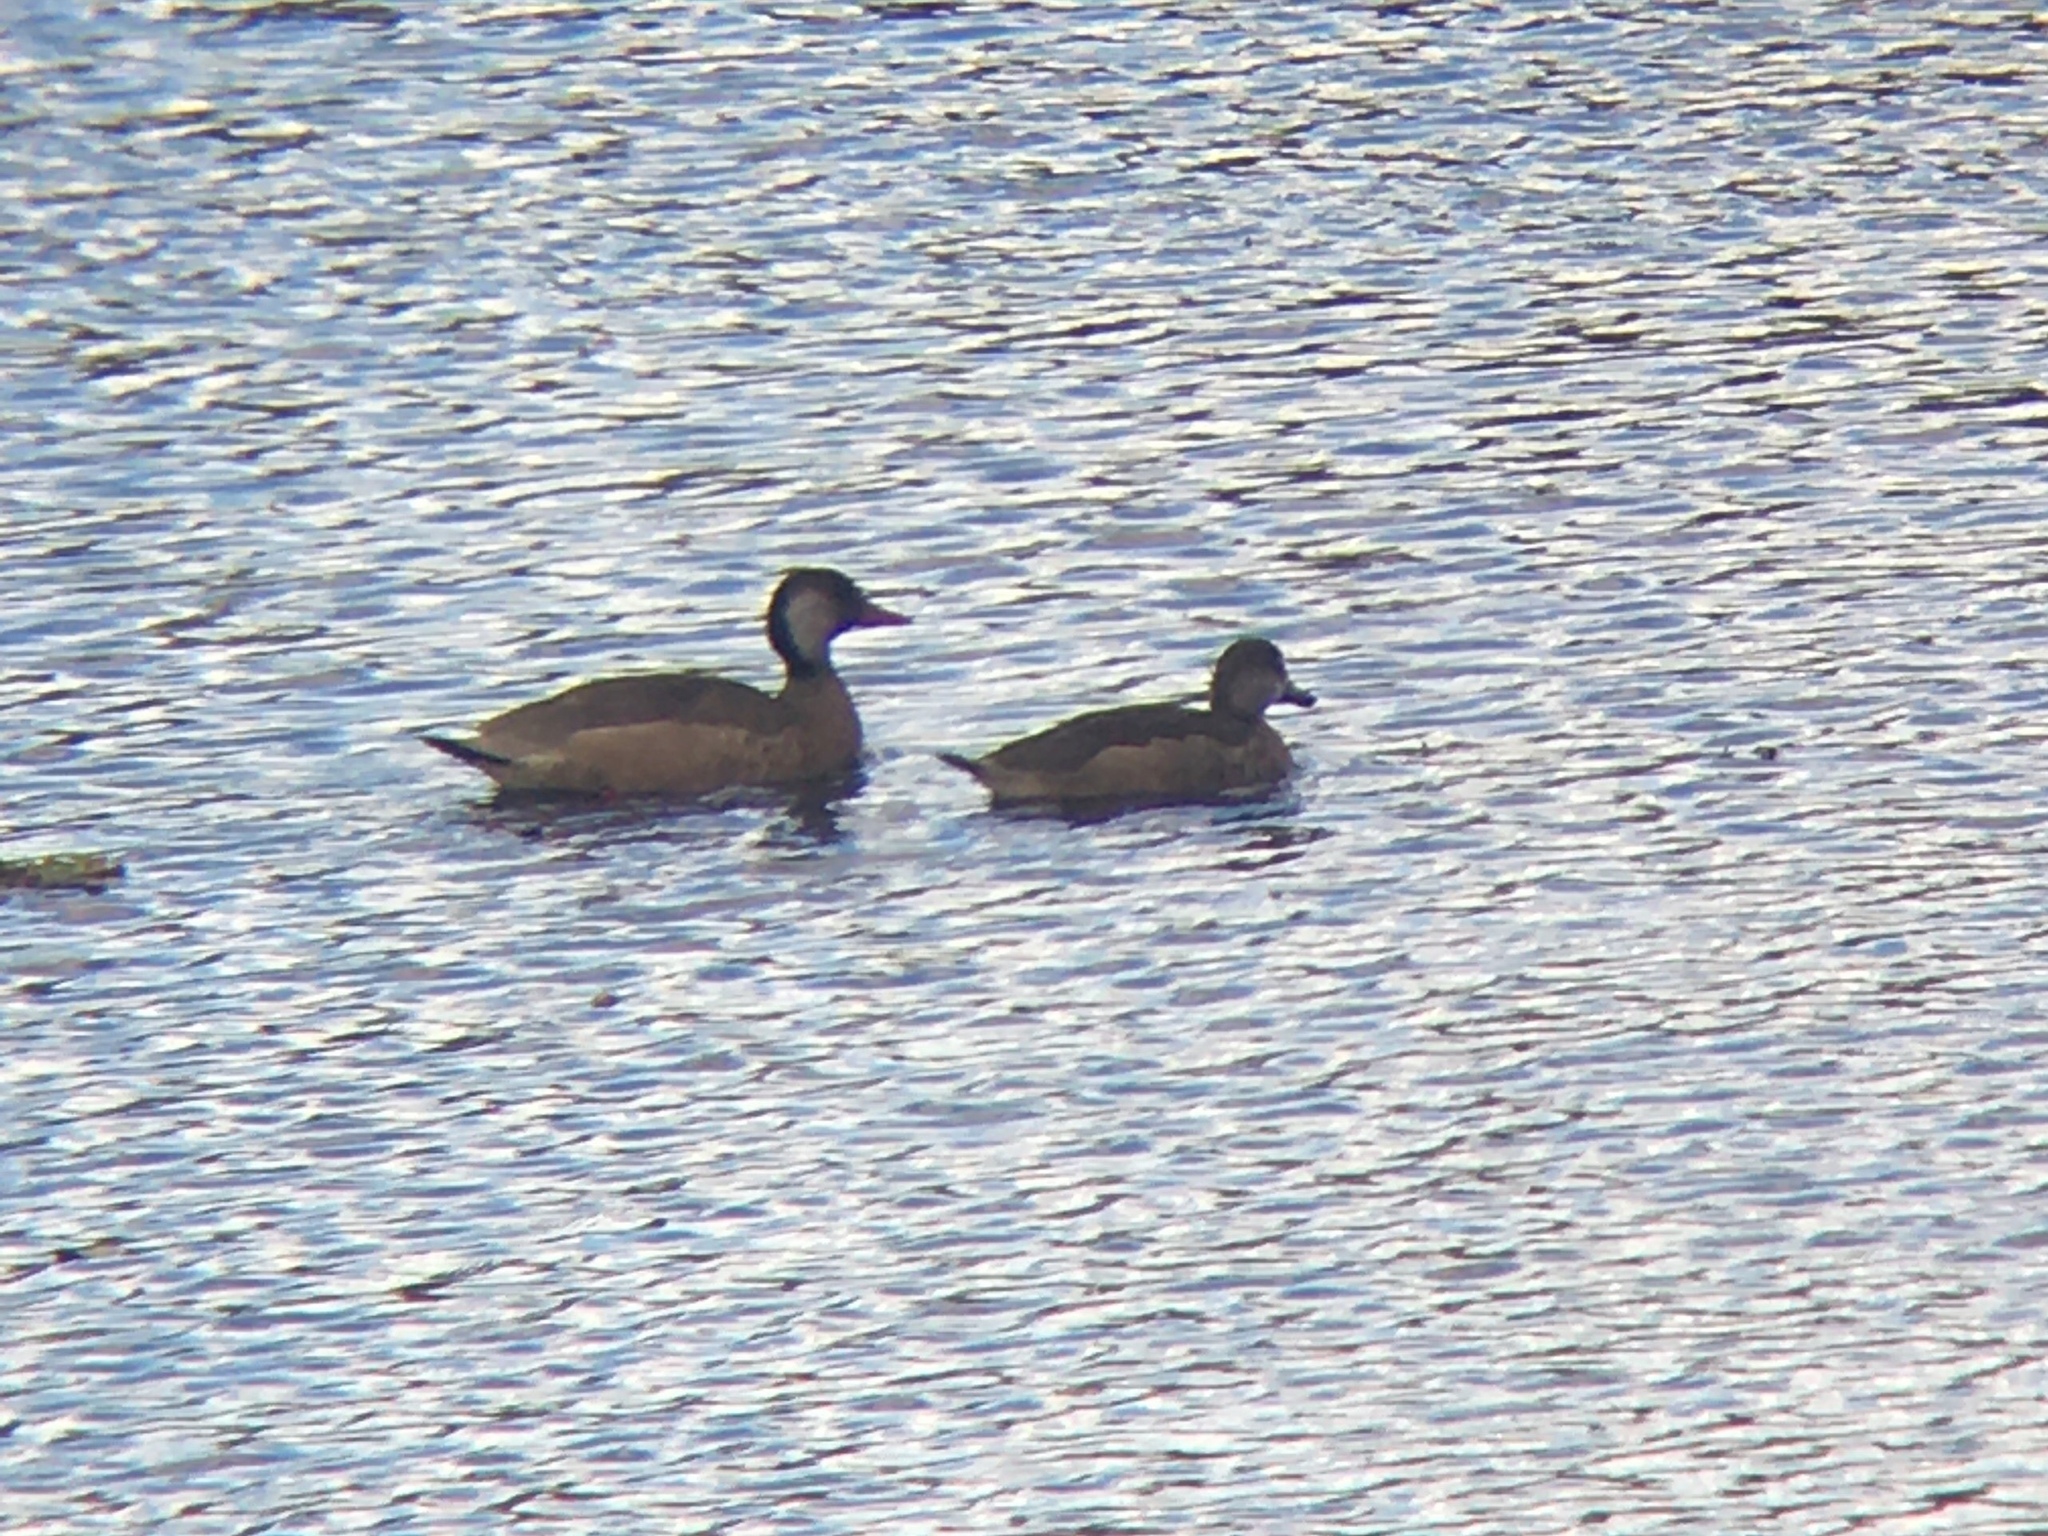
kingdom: Animalia
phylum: Chordata
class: Aves
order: Anseriformes
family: Anatidae
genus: Amazonetta
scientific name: Amazonetta brasiliensis
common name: Brazilian teal
